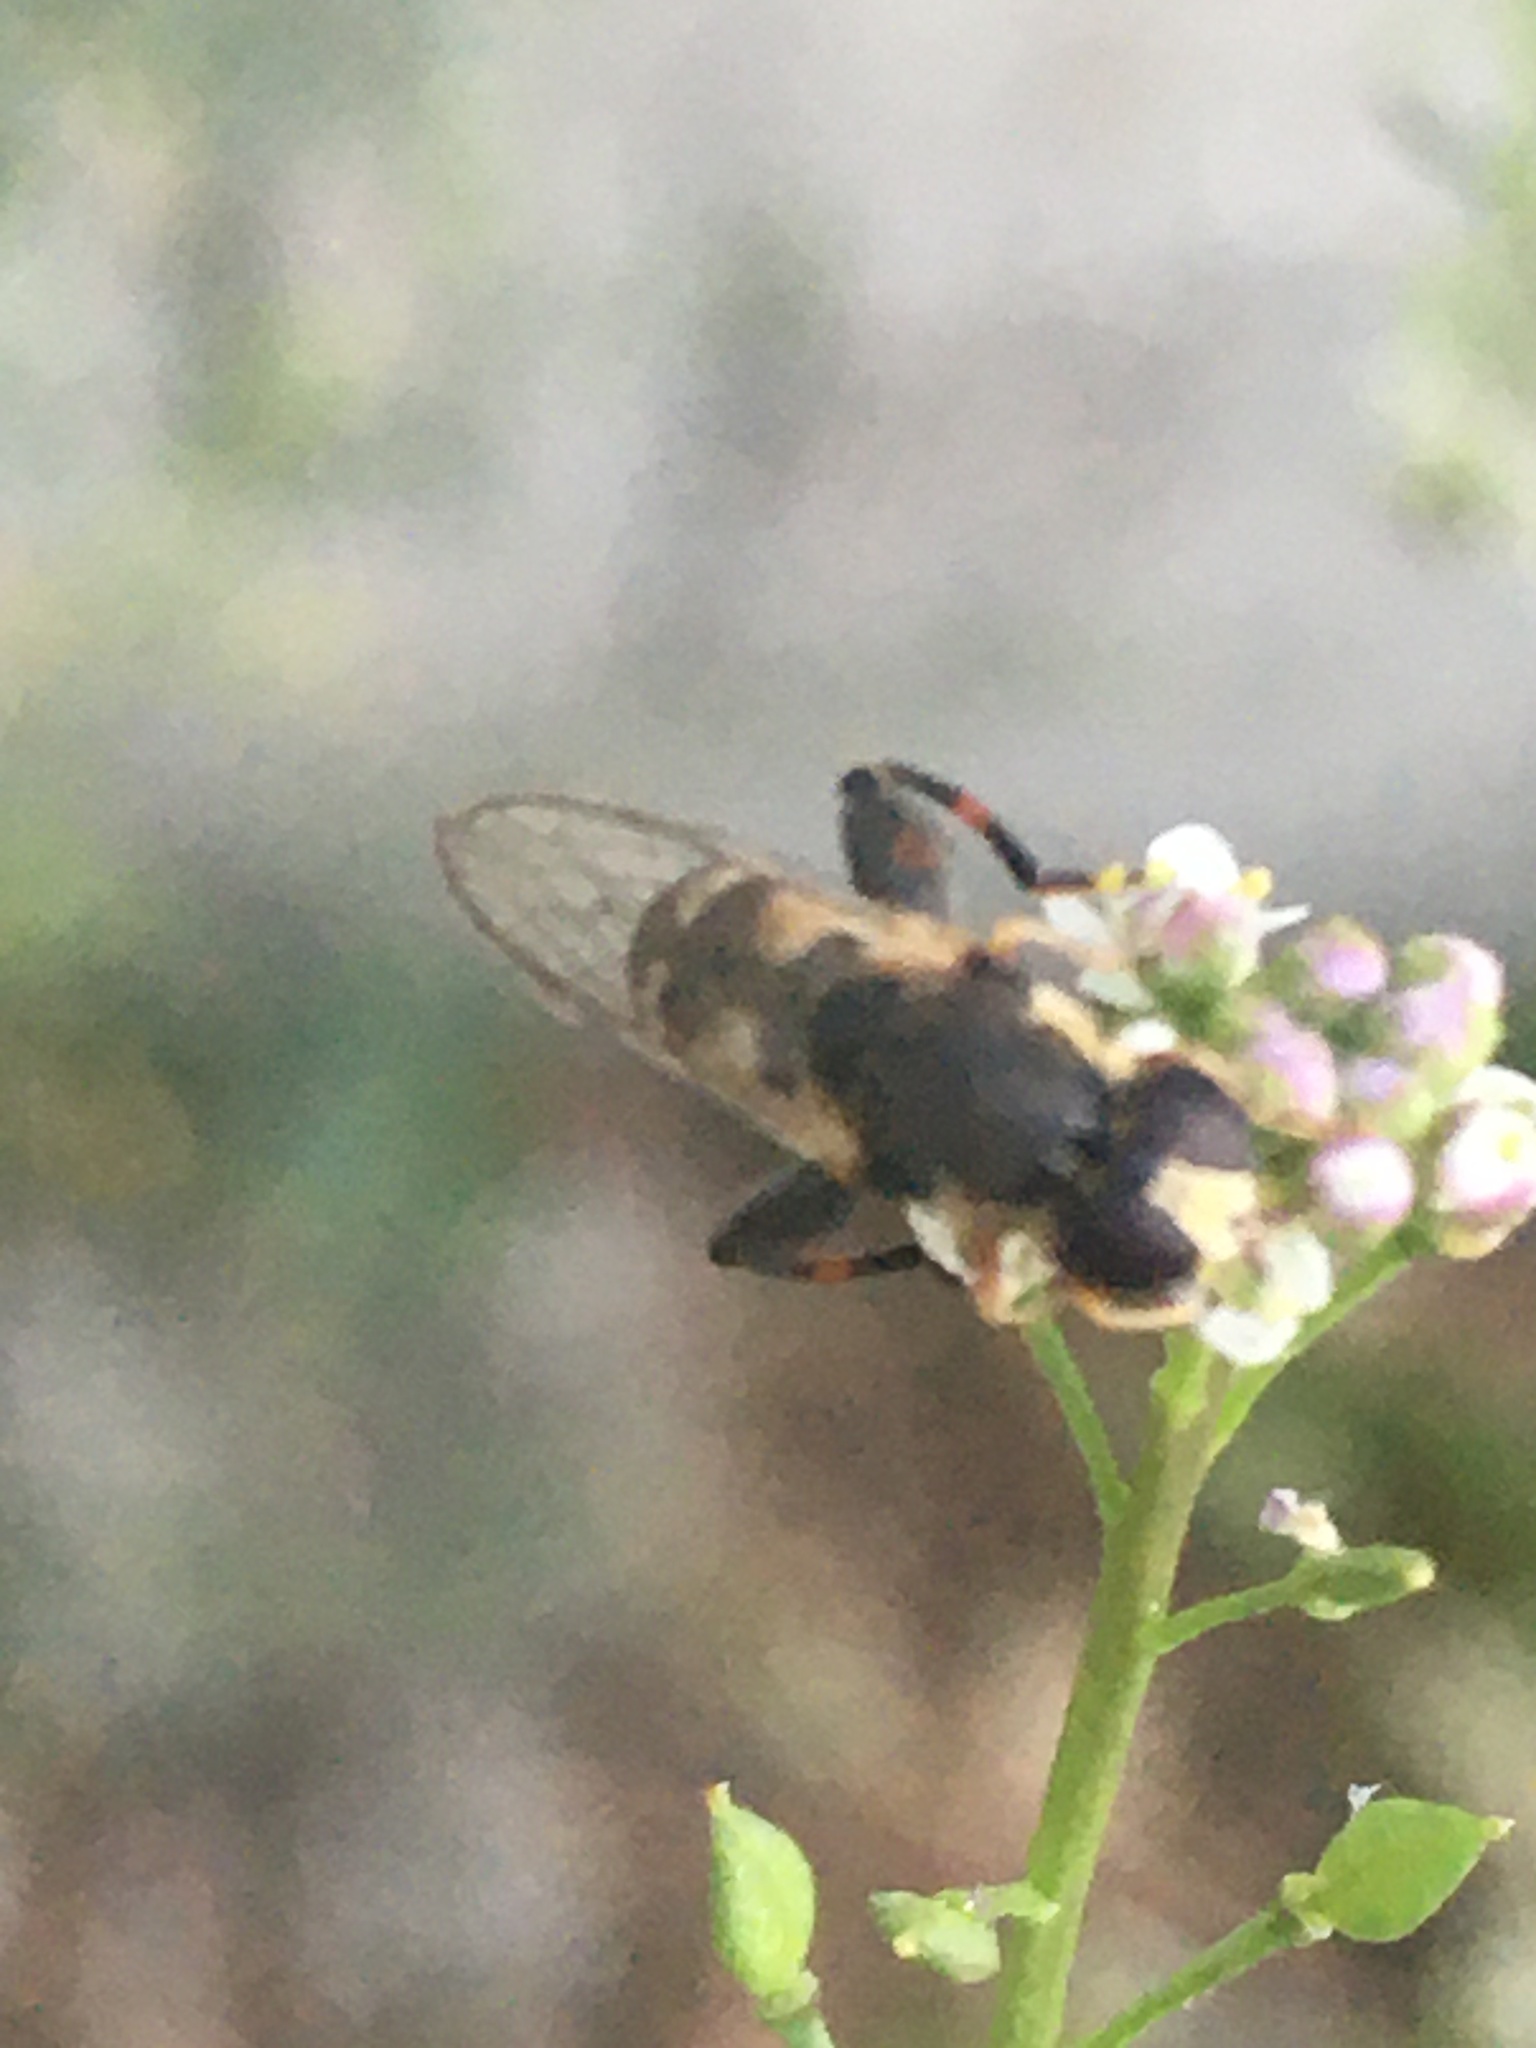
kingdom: Animalia
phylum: Arthropoda
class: Insecta
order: Diptera
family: Syrphidae
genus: Syritta
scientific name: Syritta pipiens
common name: Hover fly
